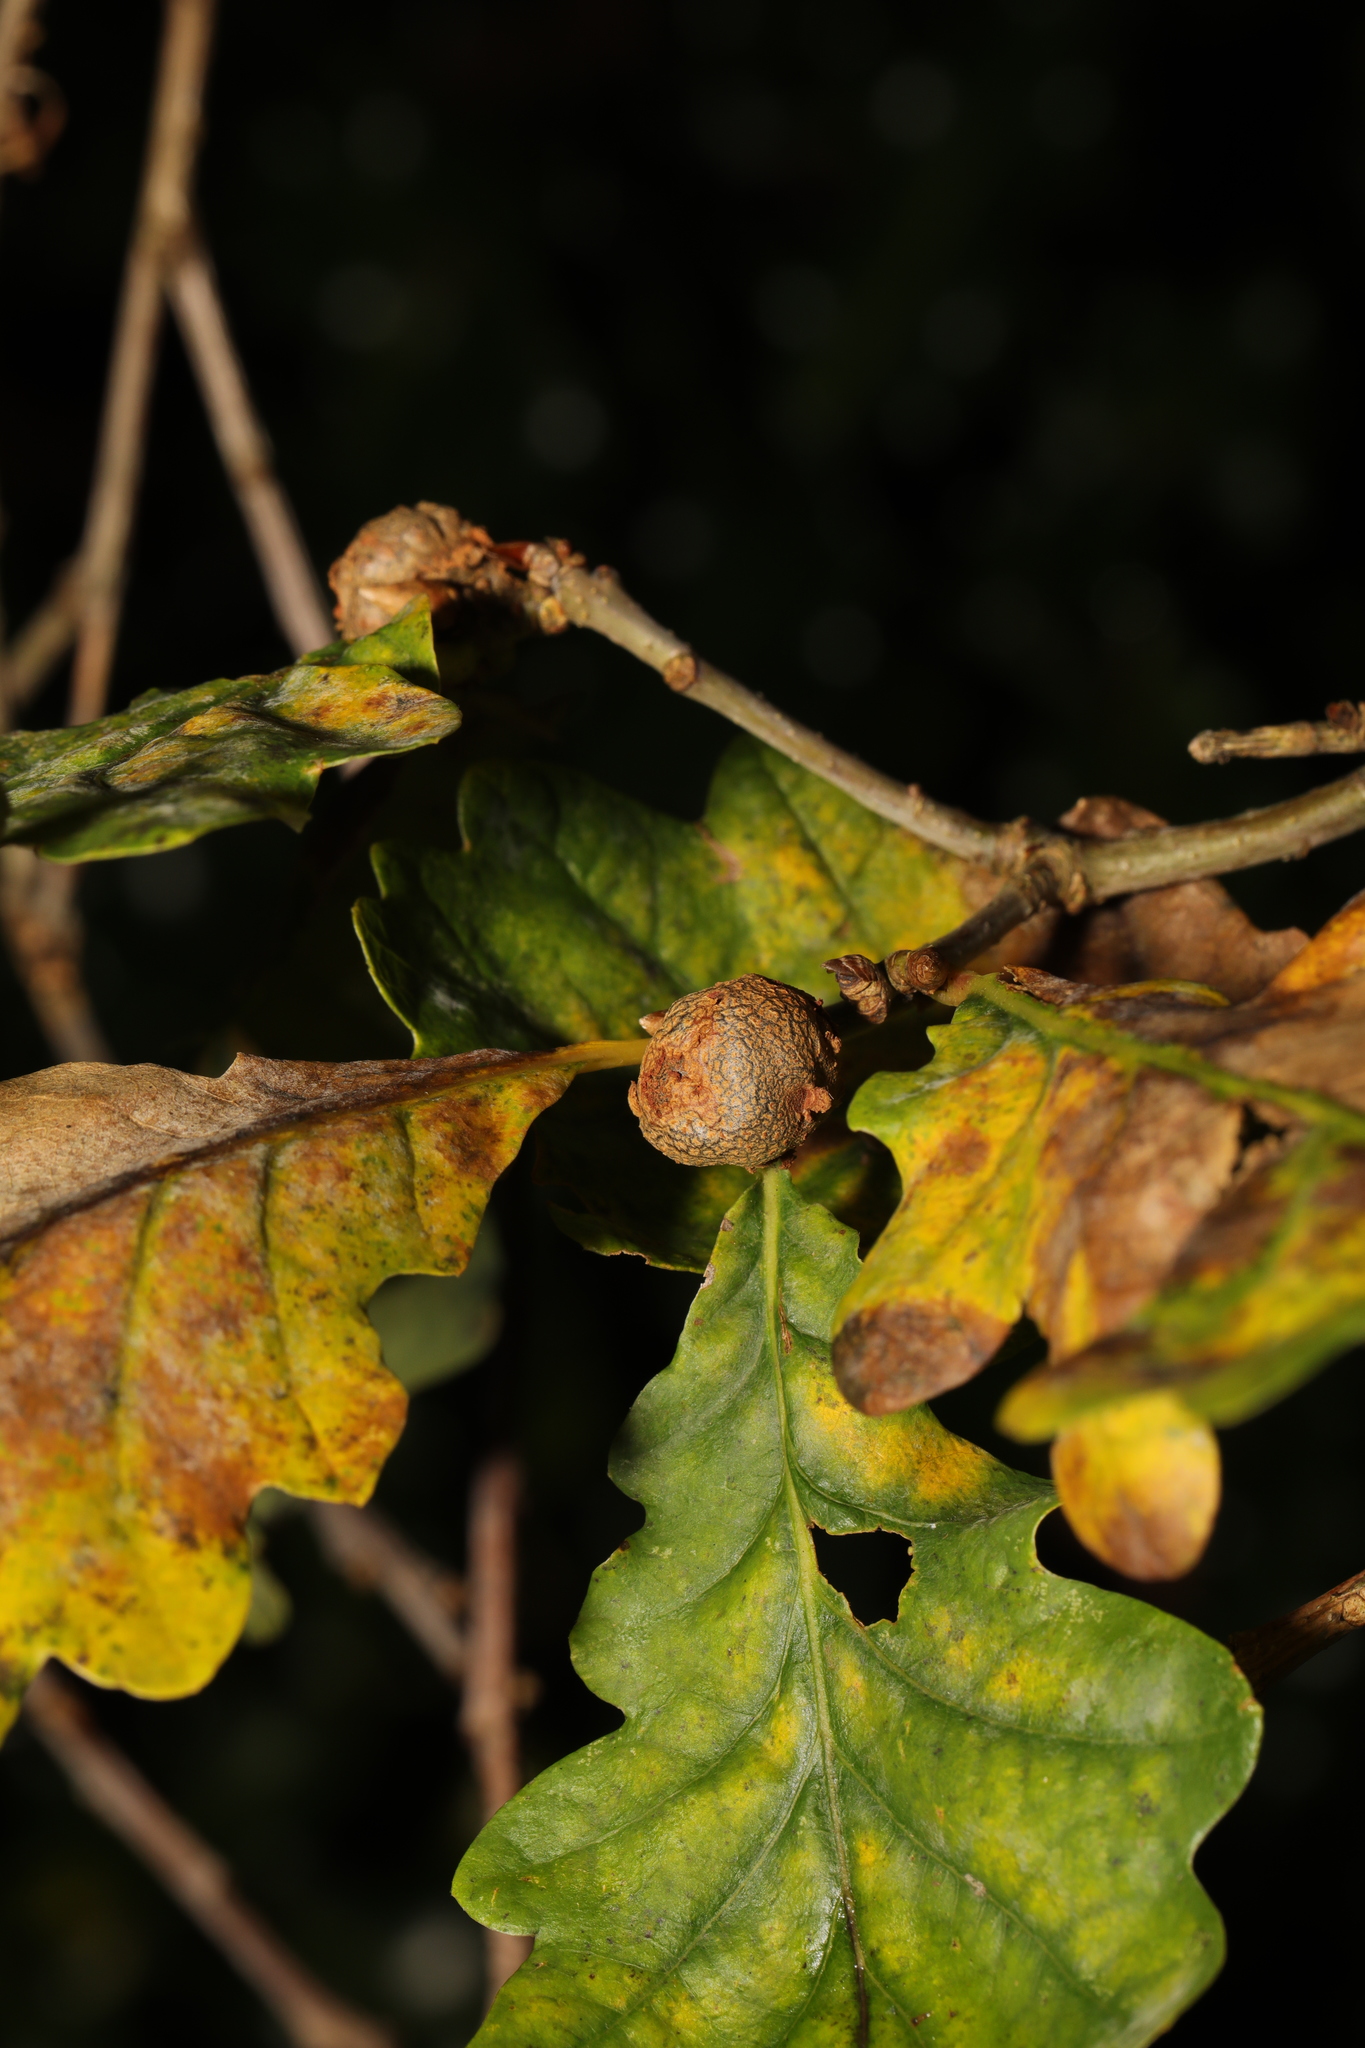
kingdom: Animalia
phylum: Arthropoda
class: Insecta
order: Hymenoptera
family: Cynipidae
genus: Andricus
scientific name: Andricus lignicolus
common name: Cola-nut gall
